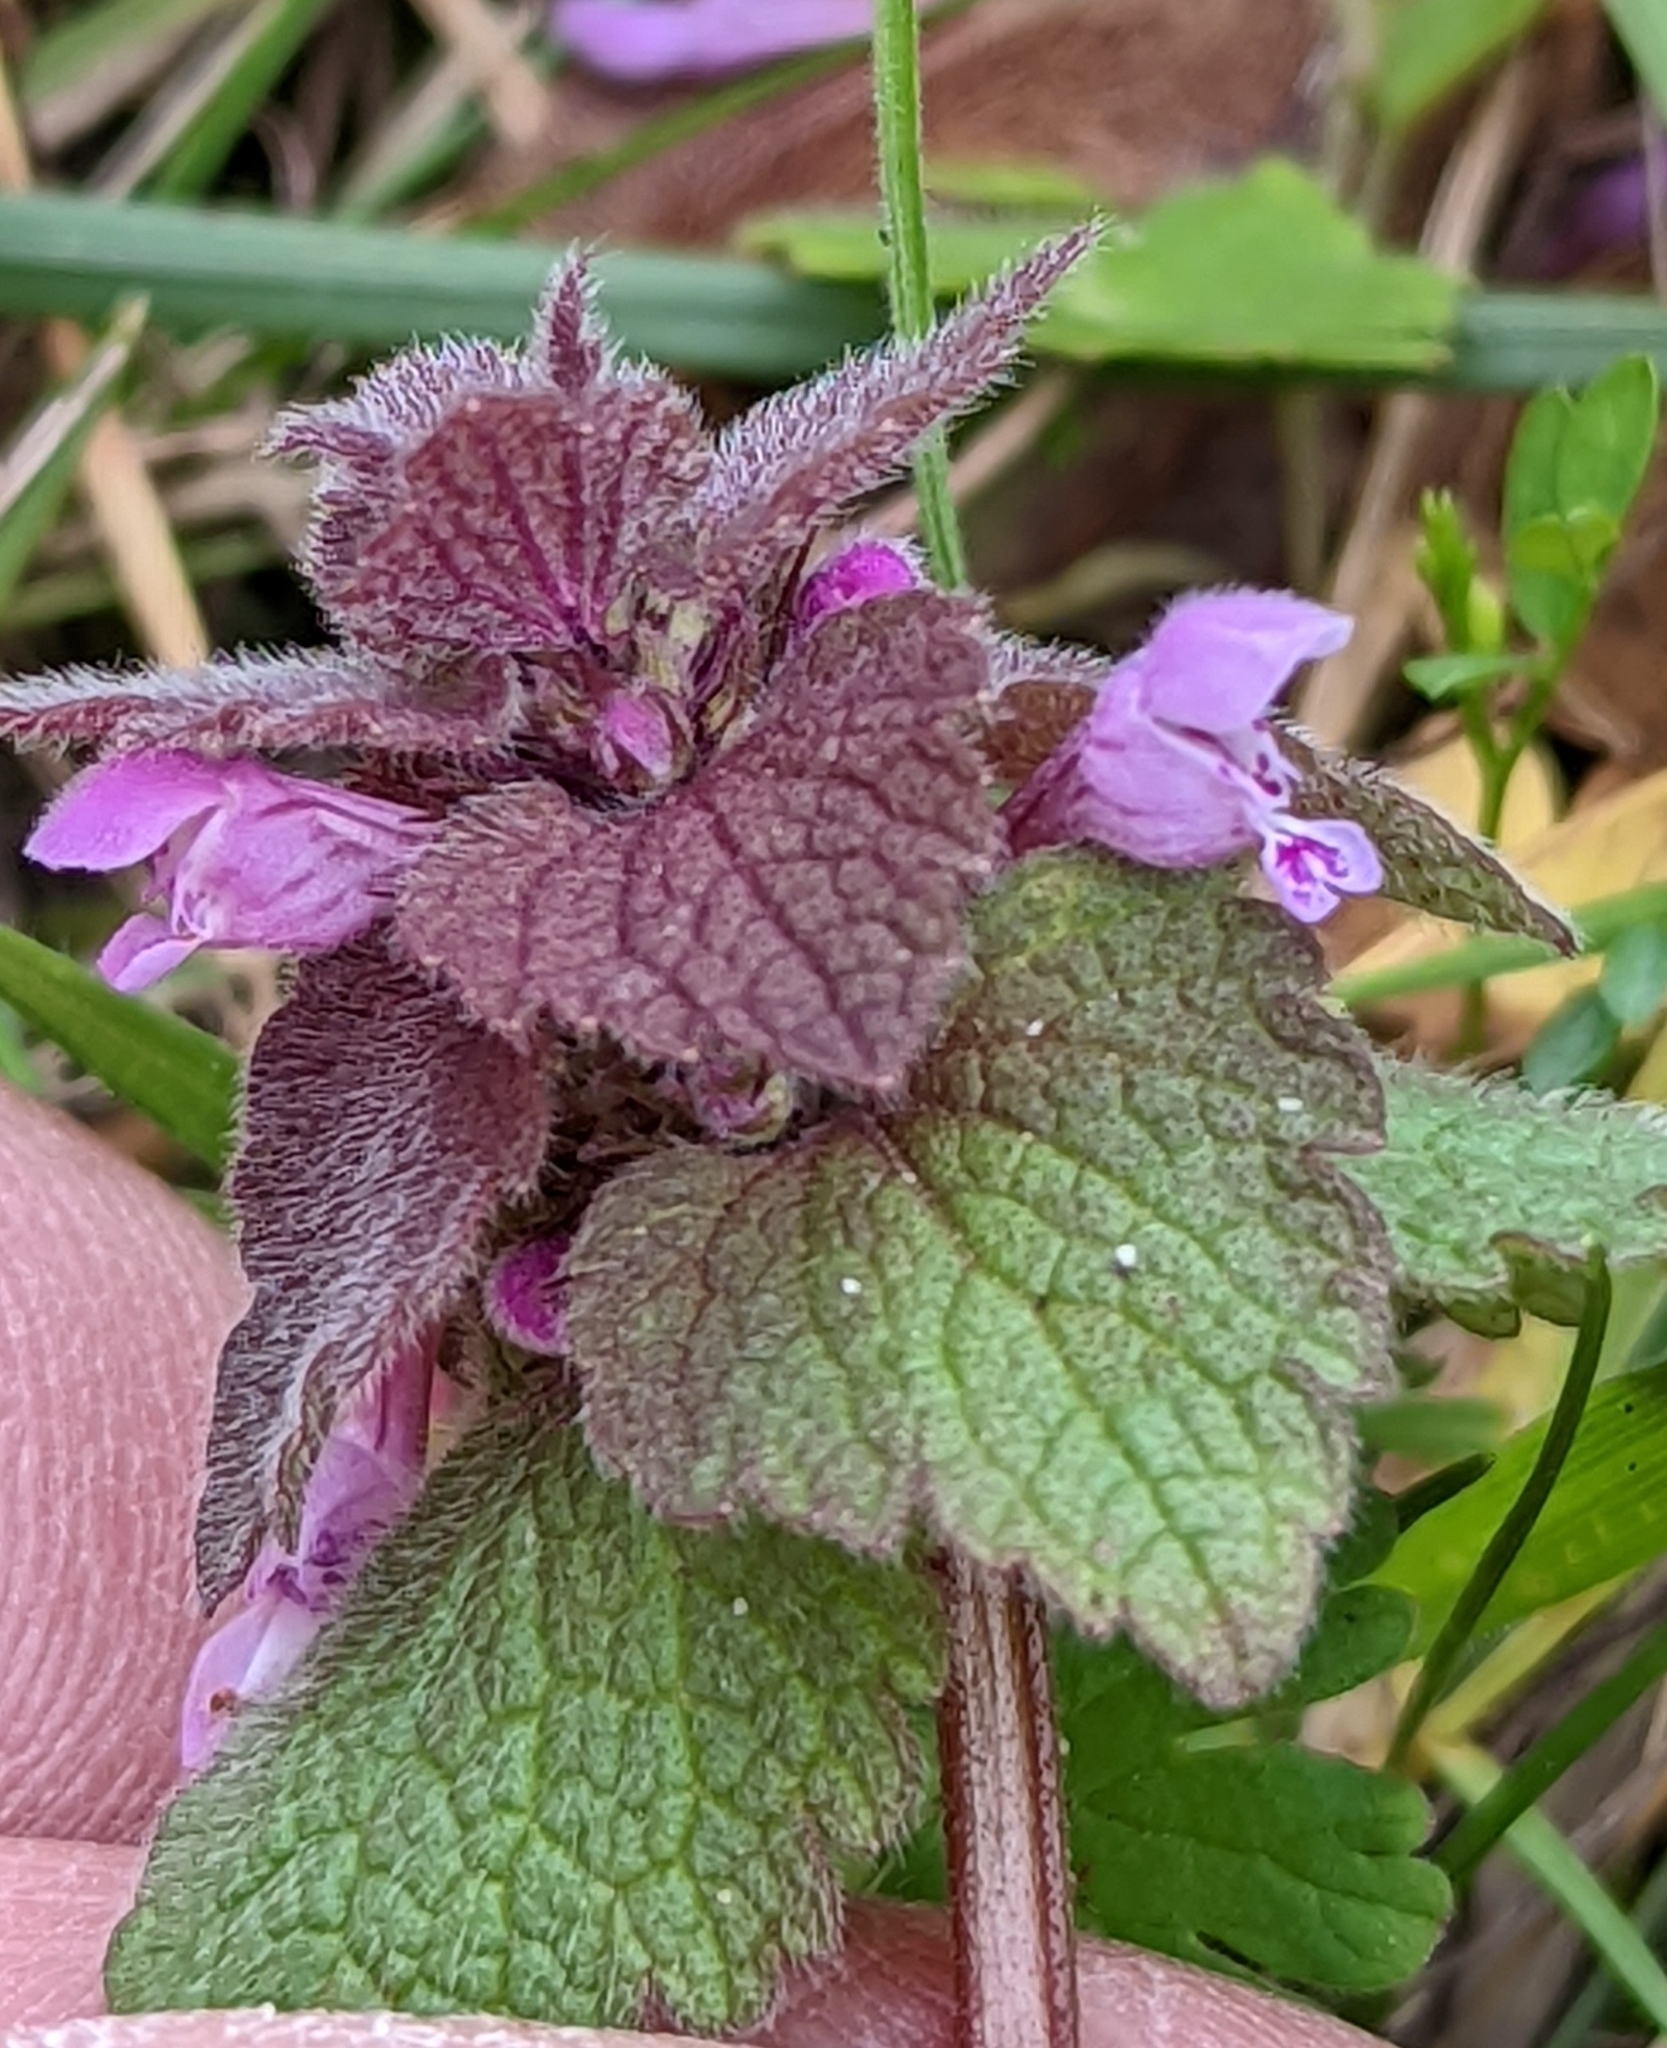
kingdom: Plantae
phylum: Tracheophyta
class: Magnoliopsida
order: Lamiales
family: Lamiaceae
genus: Lamium
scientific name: Lamium purpureum
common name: Red dead-nettle
